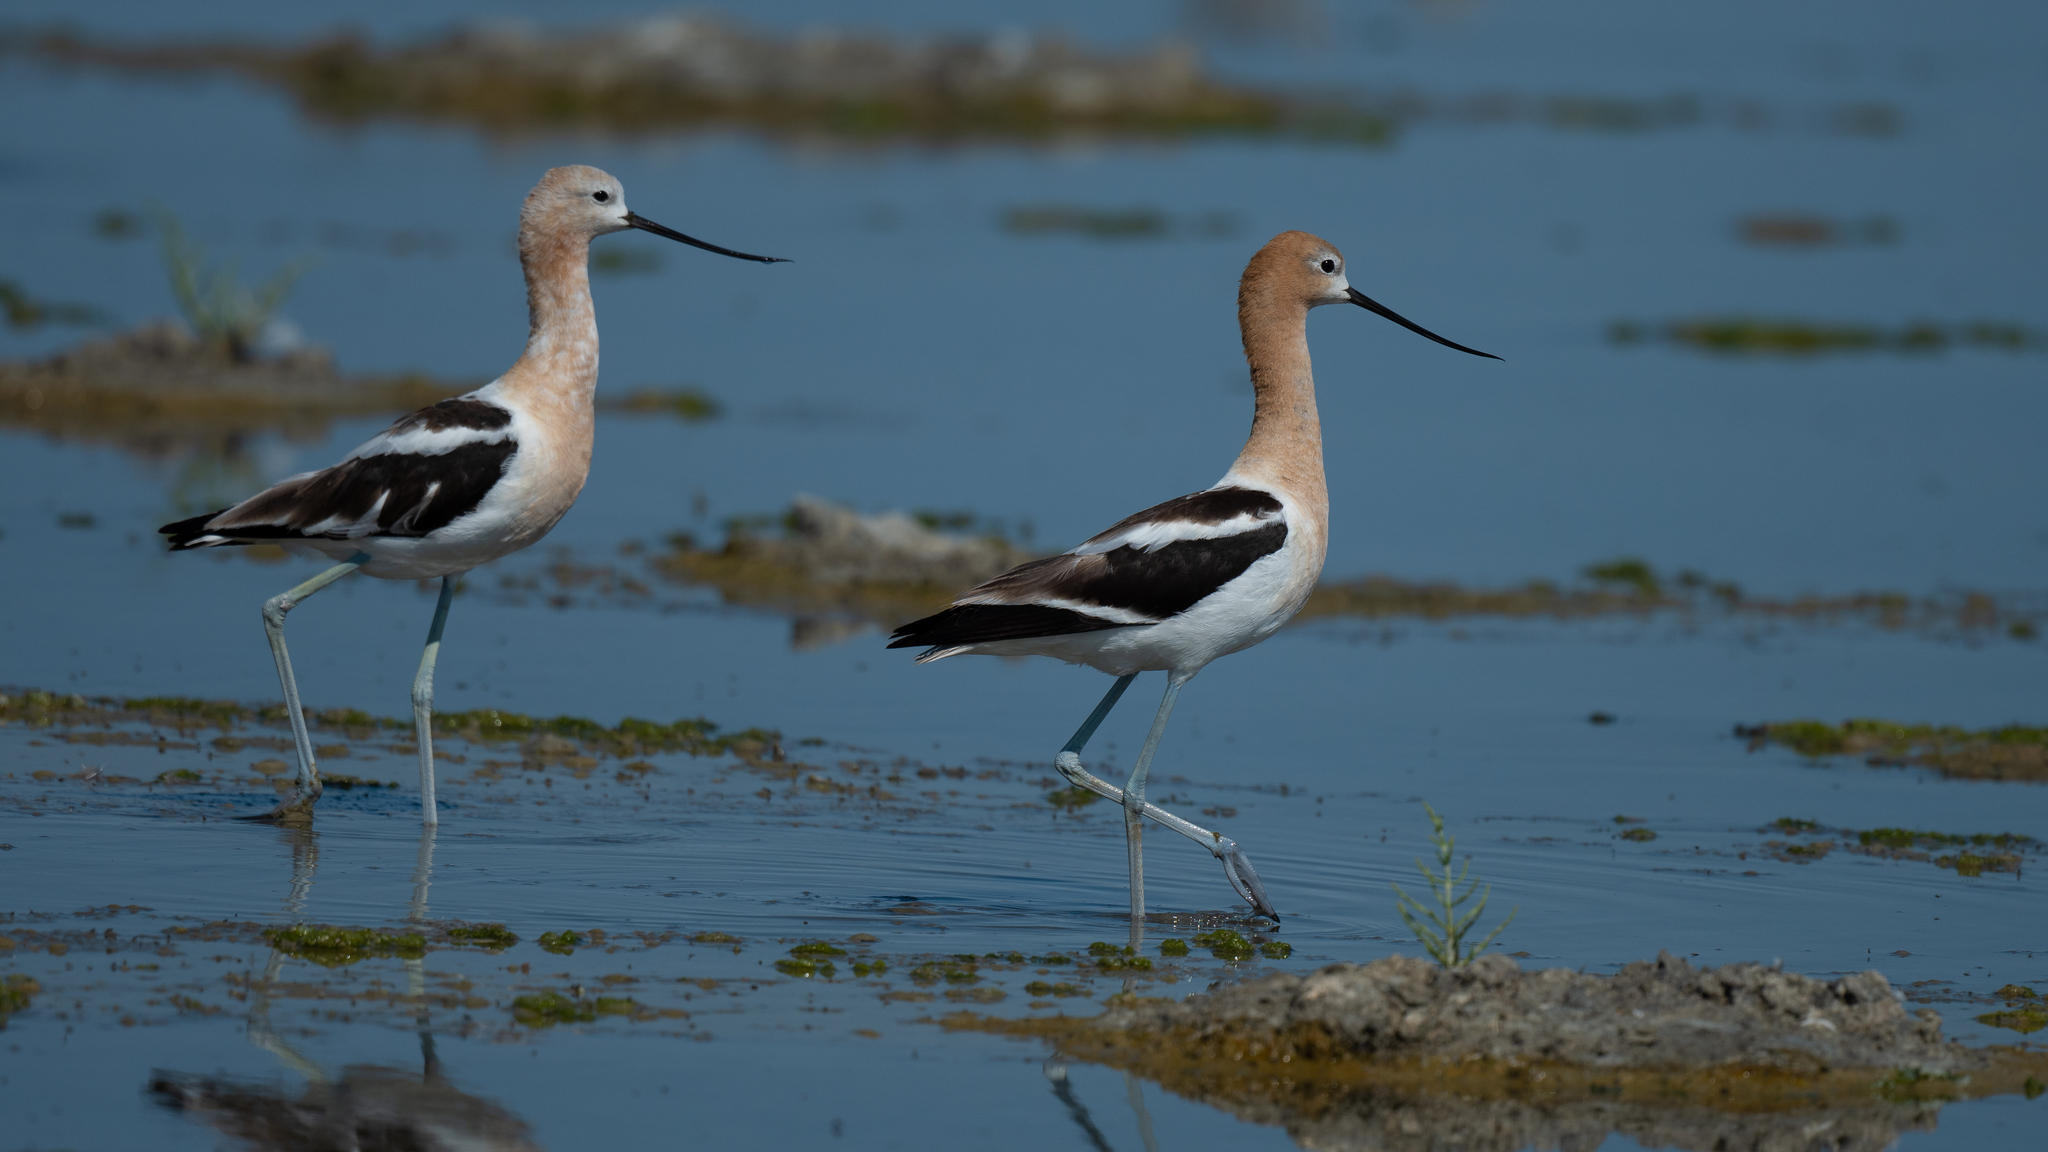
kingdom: Animalia
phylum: Chordata
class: Aves
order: Charadriiformes
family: Recurvirostridae
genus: Recurvirostra
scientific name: Recurvirostra americana
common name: American avocet
